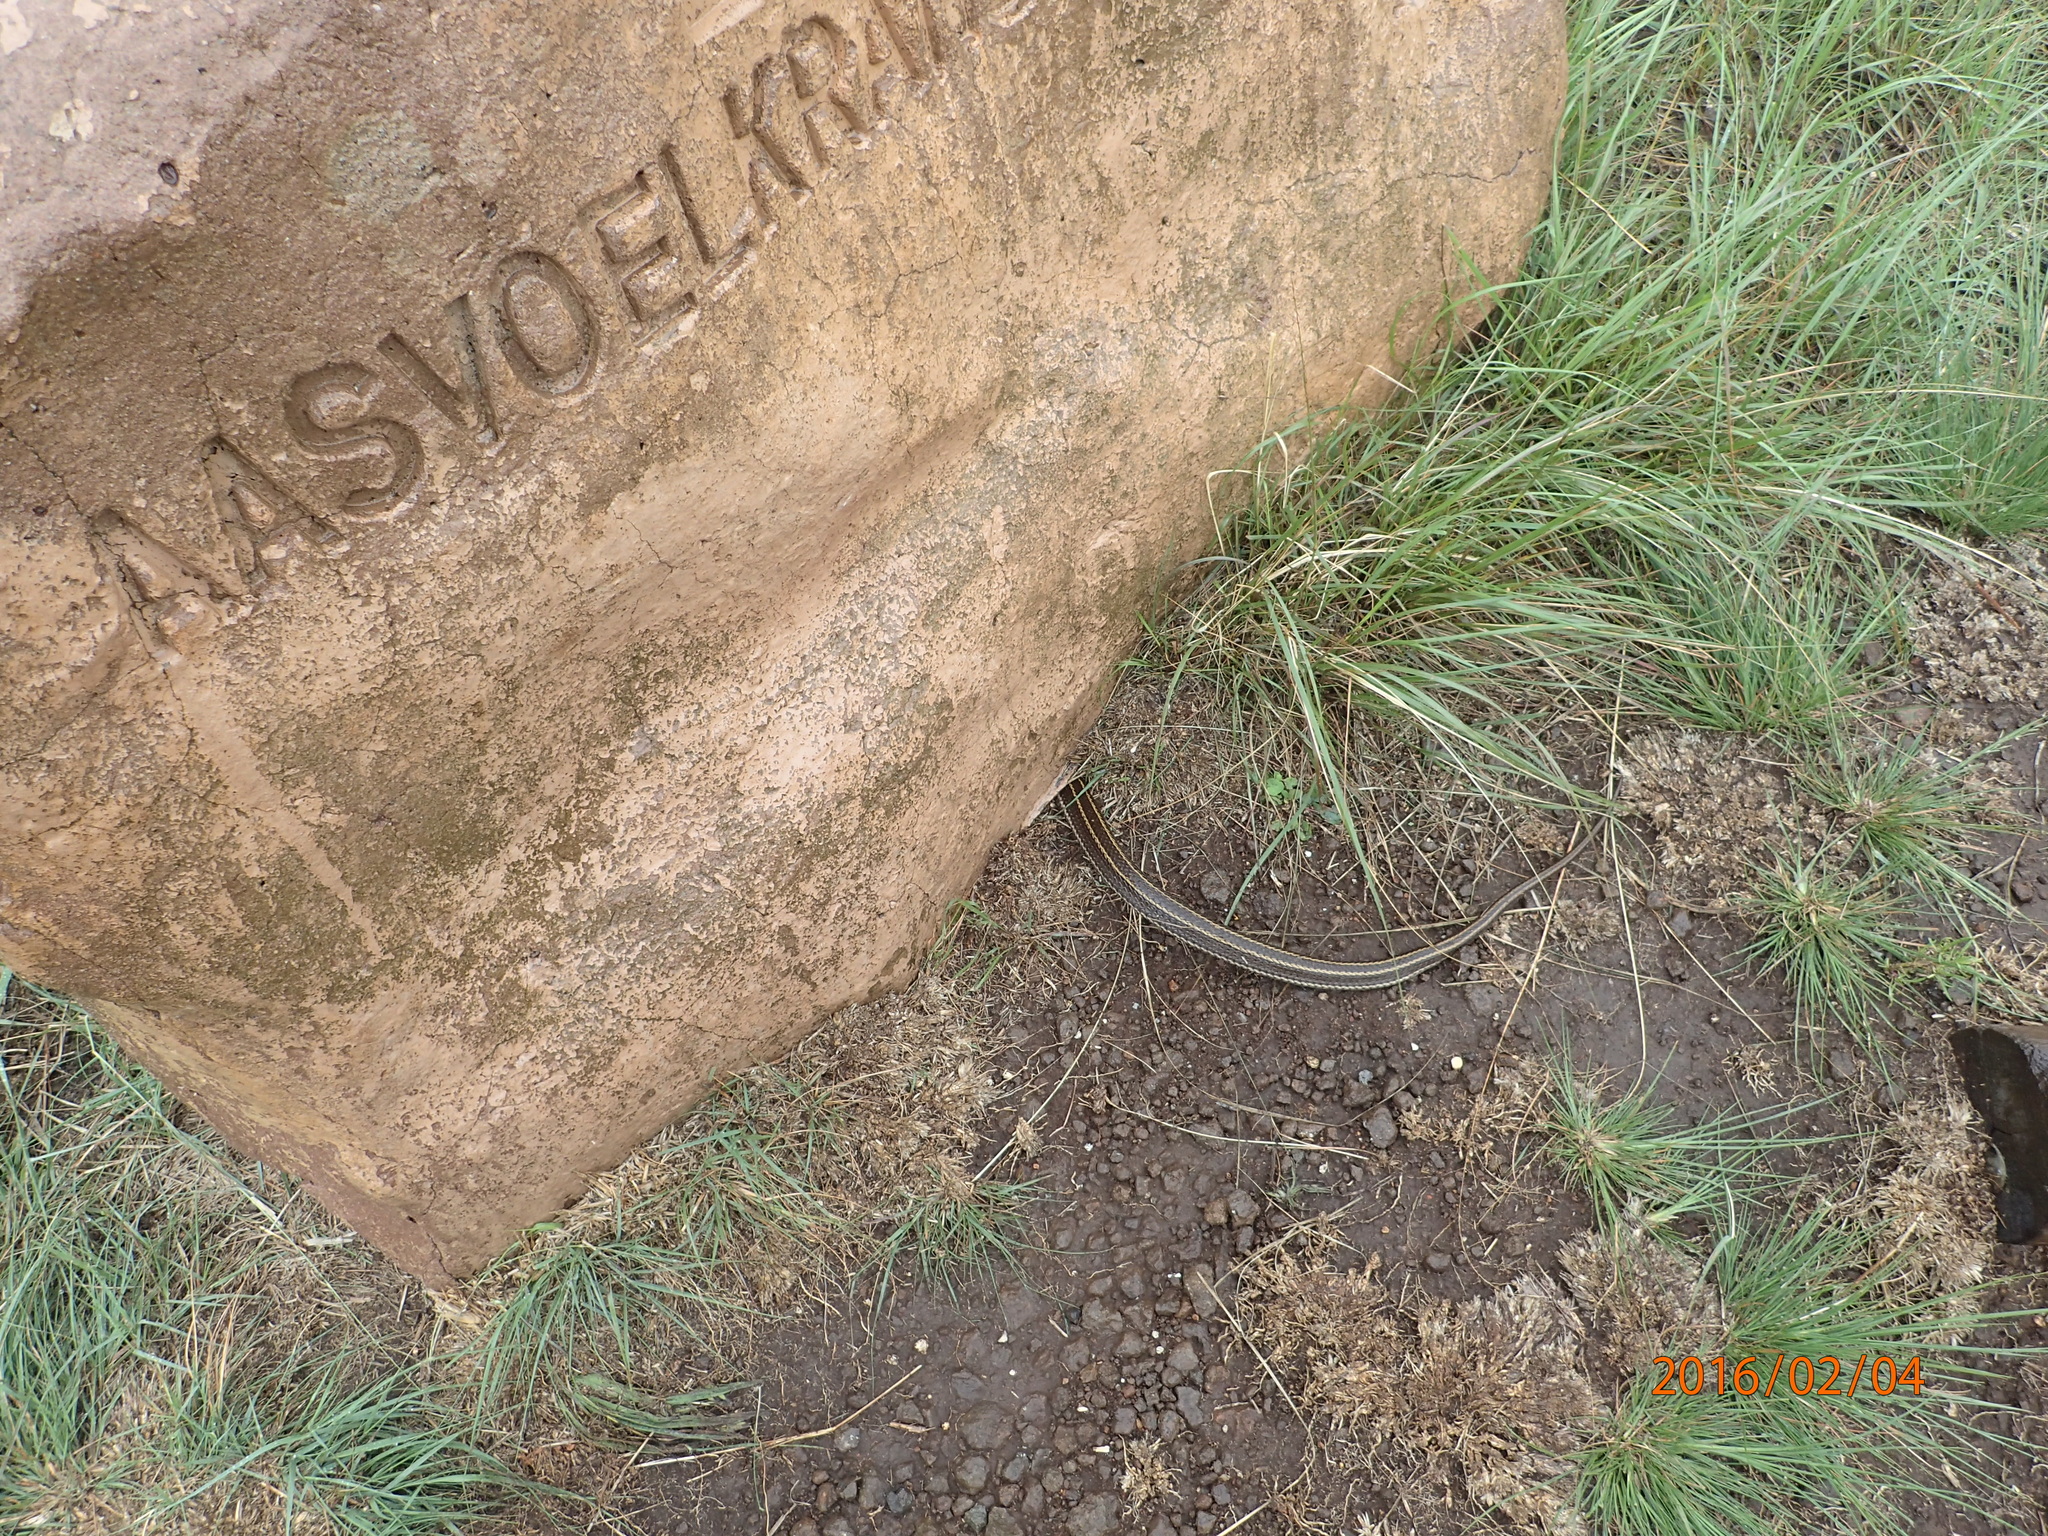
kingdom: Animalia
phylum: Chordata
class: Squamata
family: Psammophiidae
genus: Psammophylax
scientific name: Psammophylax rhombeatus
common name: Rhombic skaapsteker
